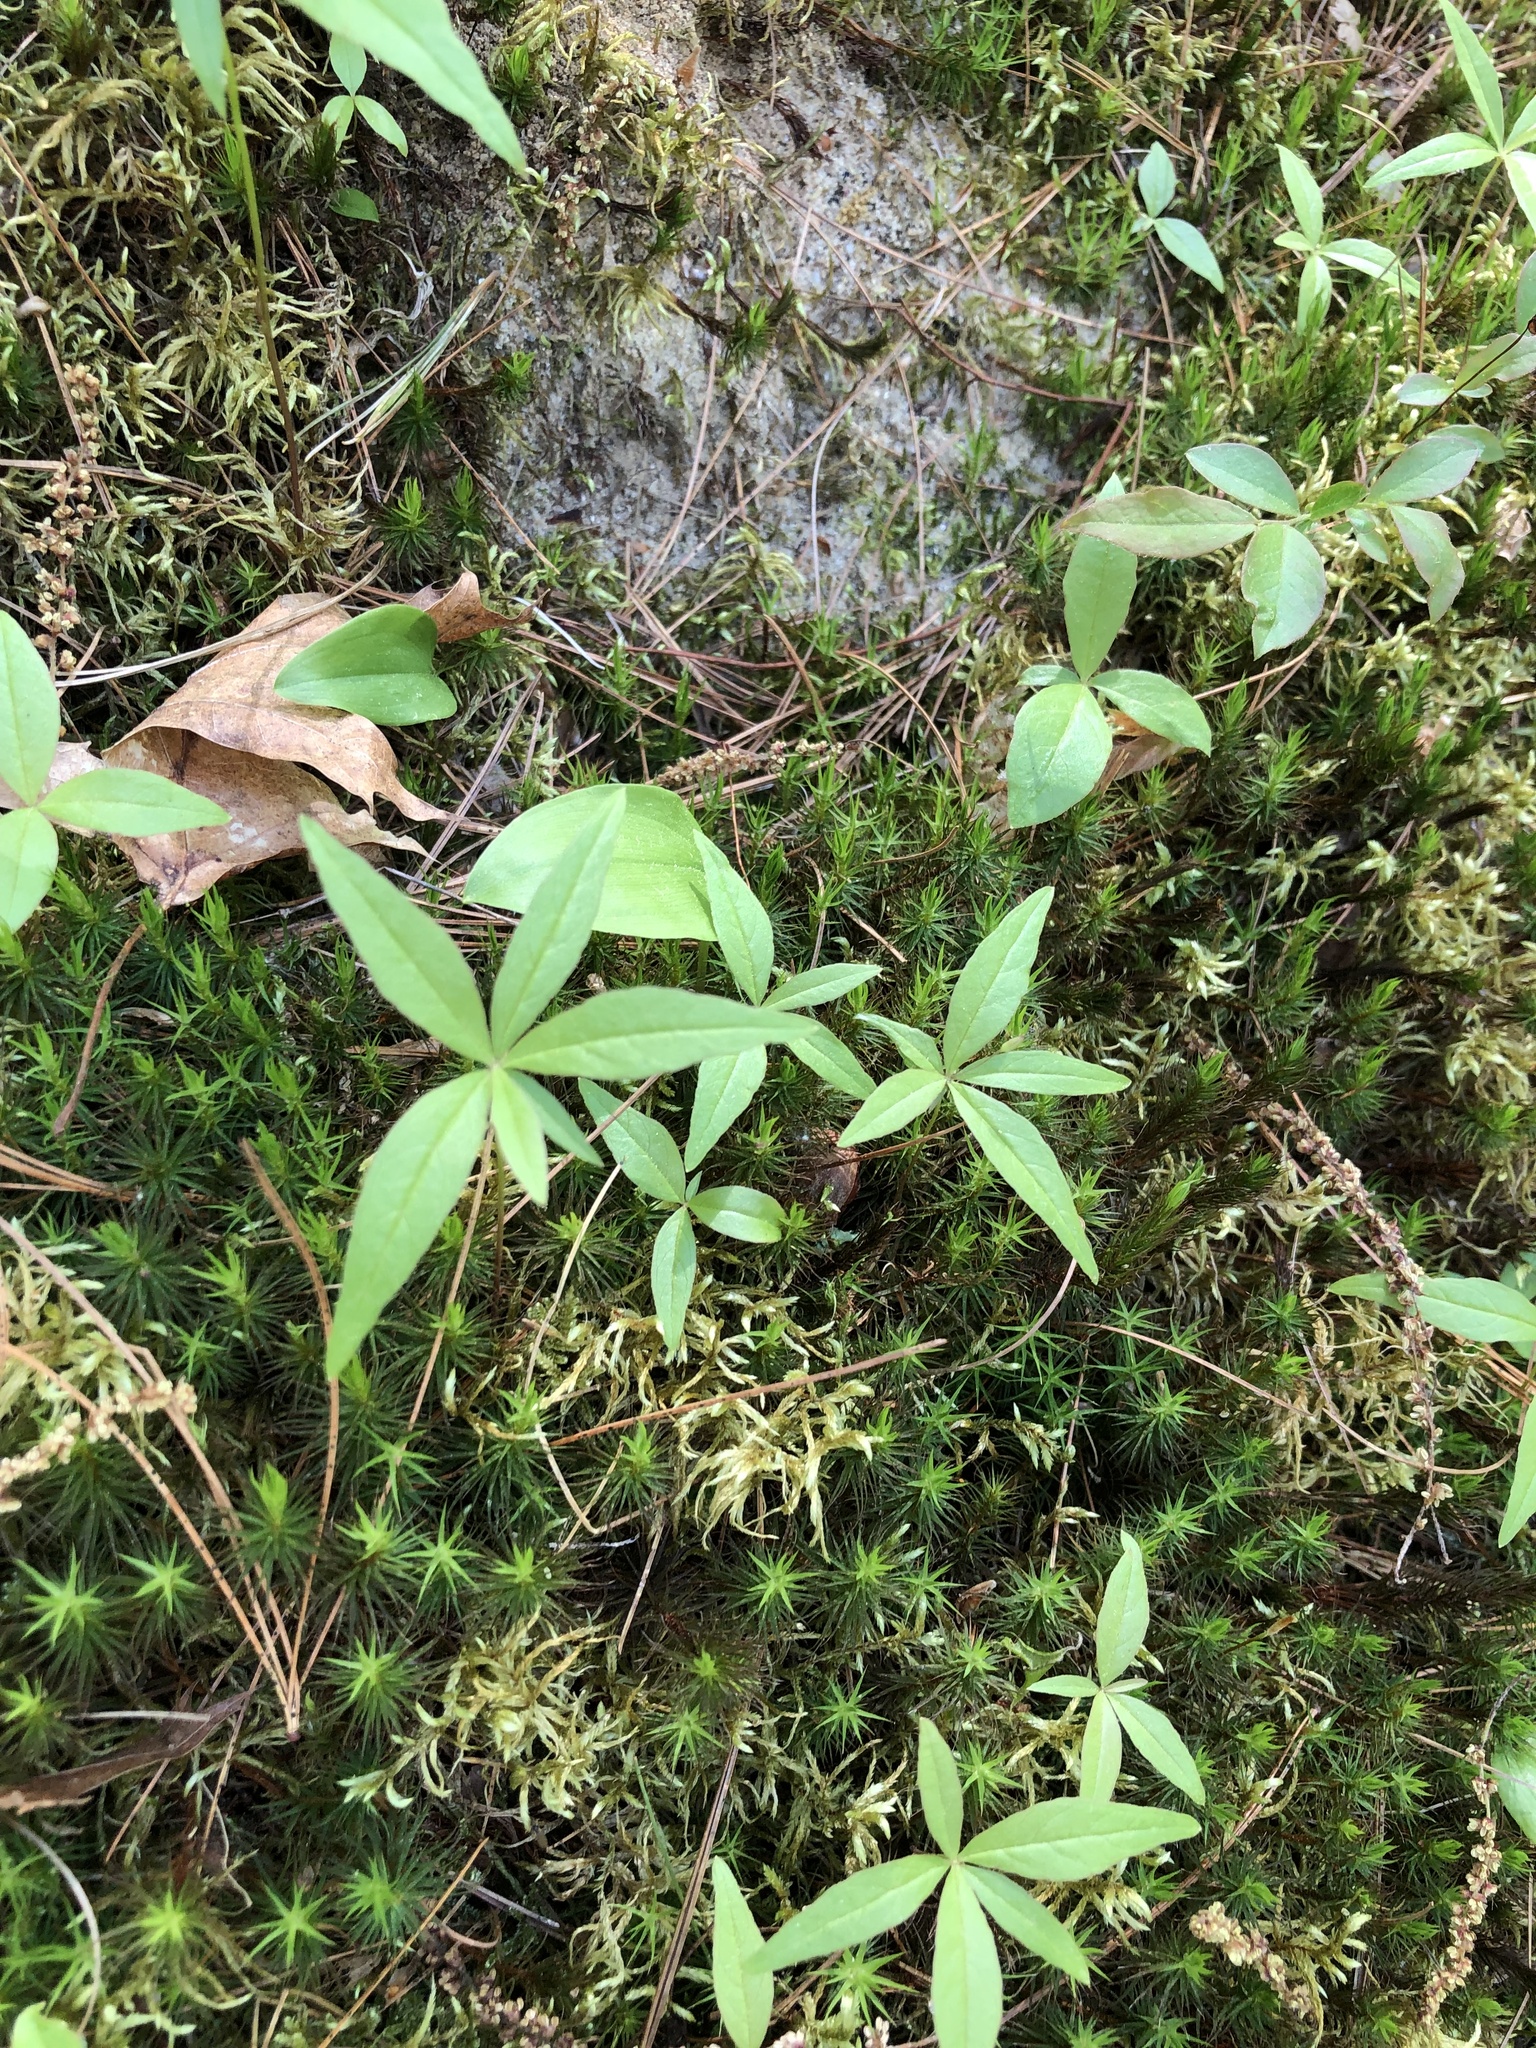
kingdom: Plantae
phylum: Tracheophyta
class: Magnoliopsida
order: Ericales
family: Primulaceae
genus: Lysimachia
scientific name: Lysimachia borealis
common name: American starflower
